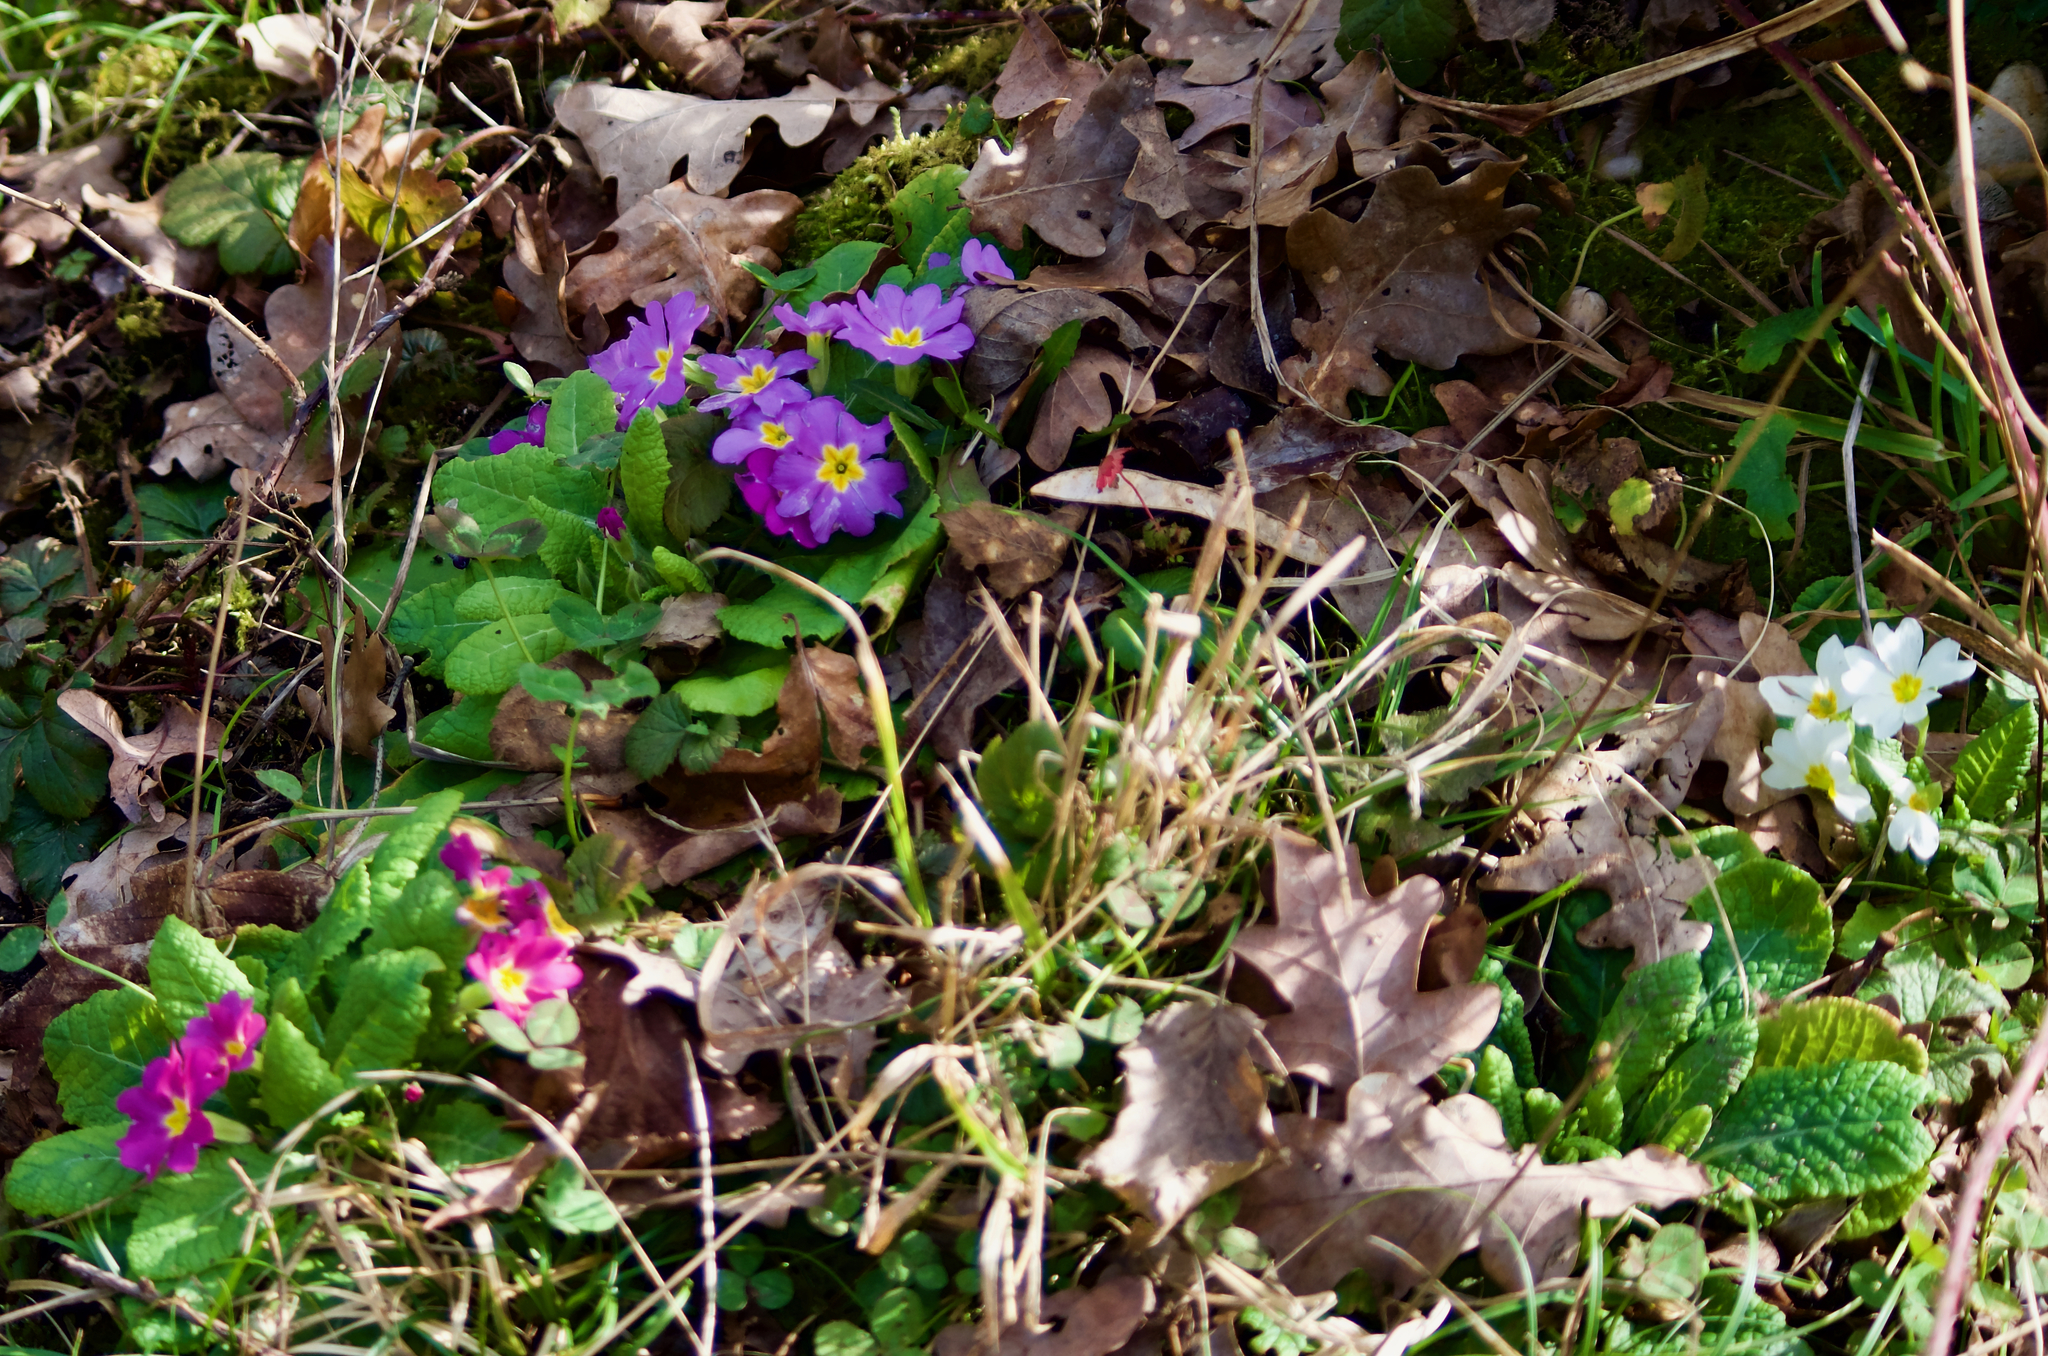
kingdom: Plantae
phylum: Tracheophyta
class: Magnoliopsida
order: Ericales
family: Primulaceae
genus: Primula
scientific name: Primula vulgaris
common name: Primrose
